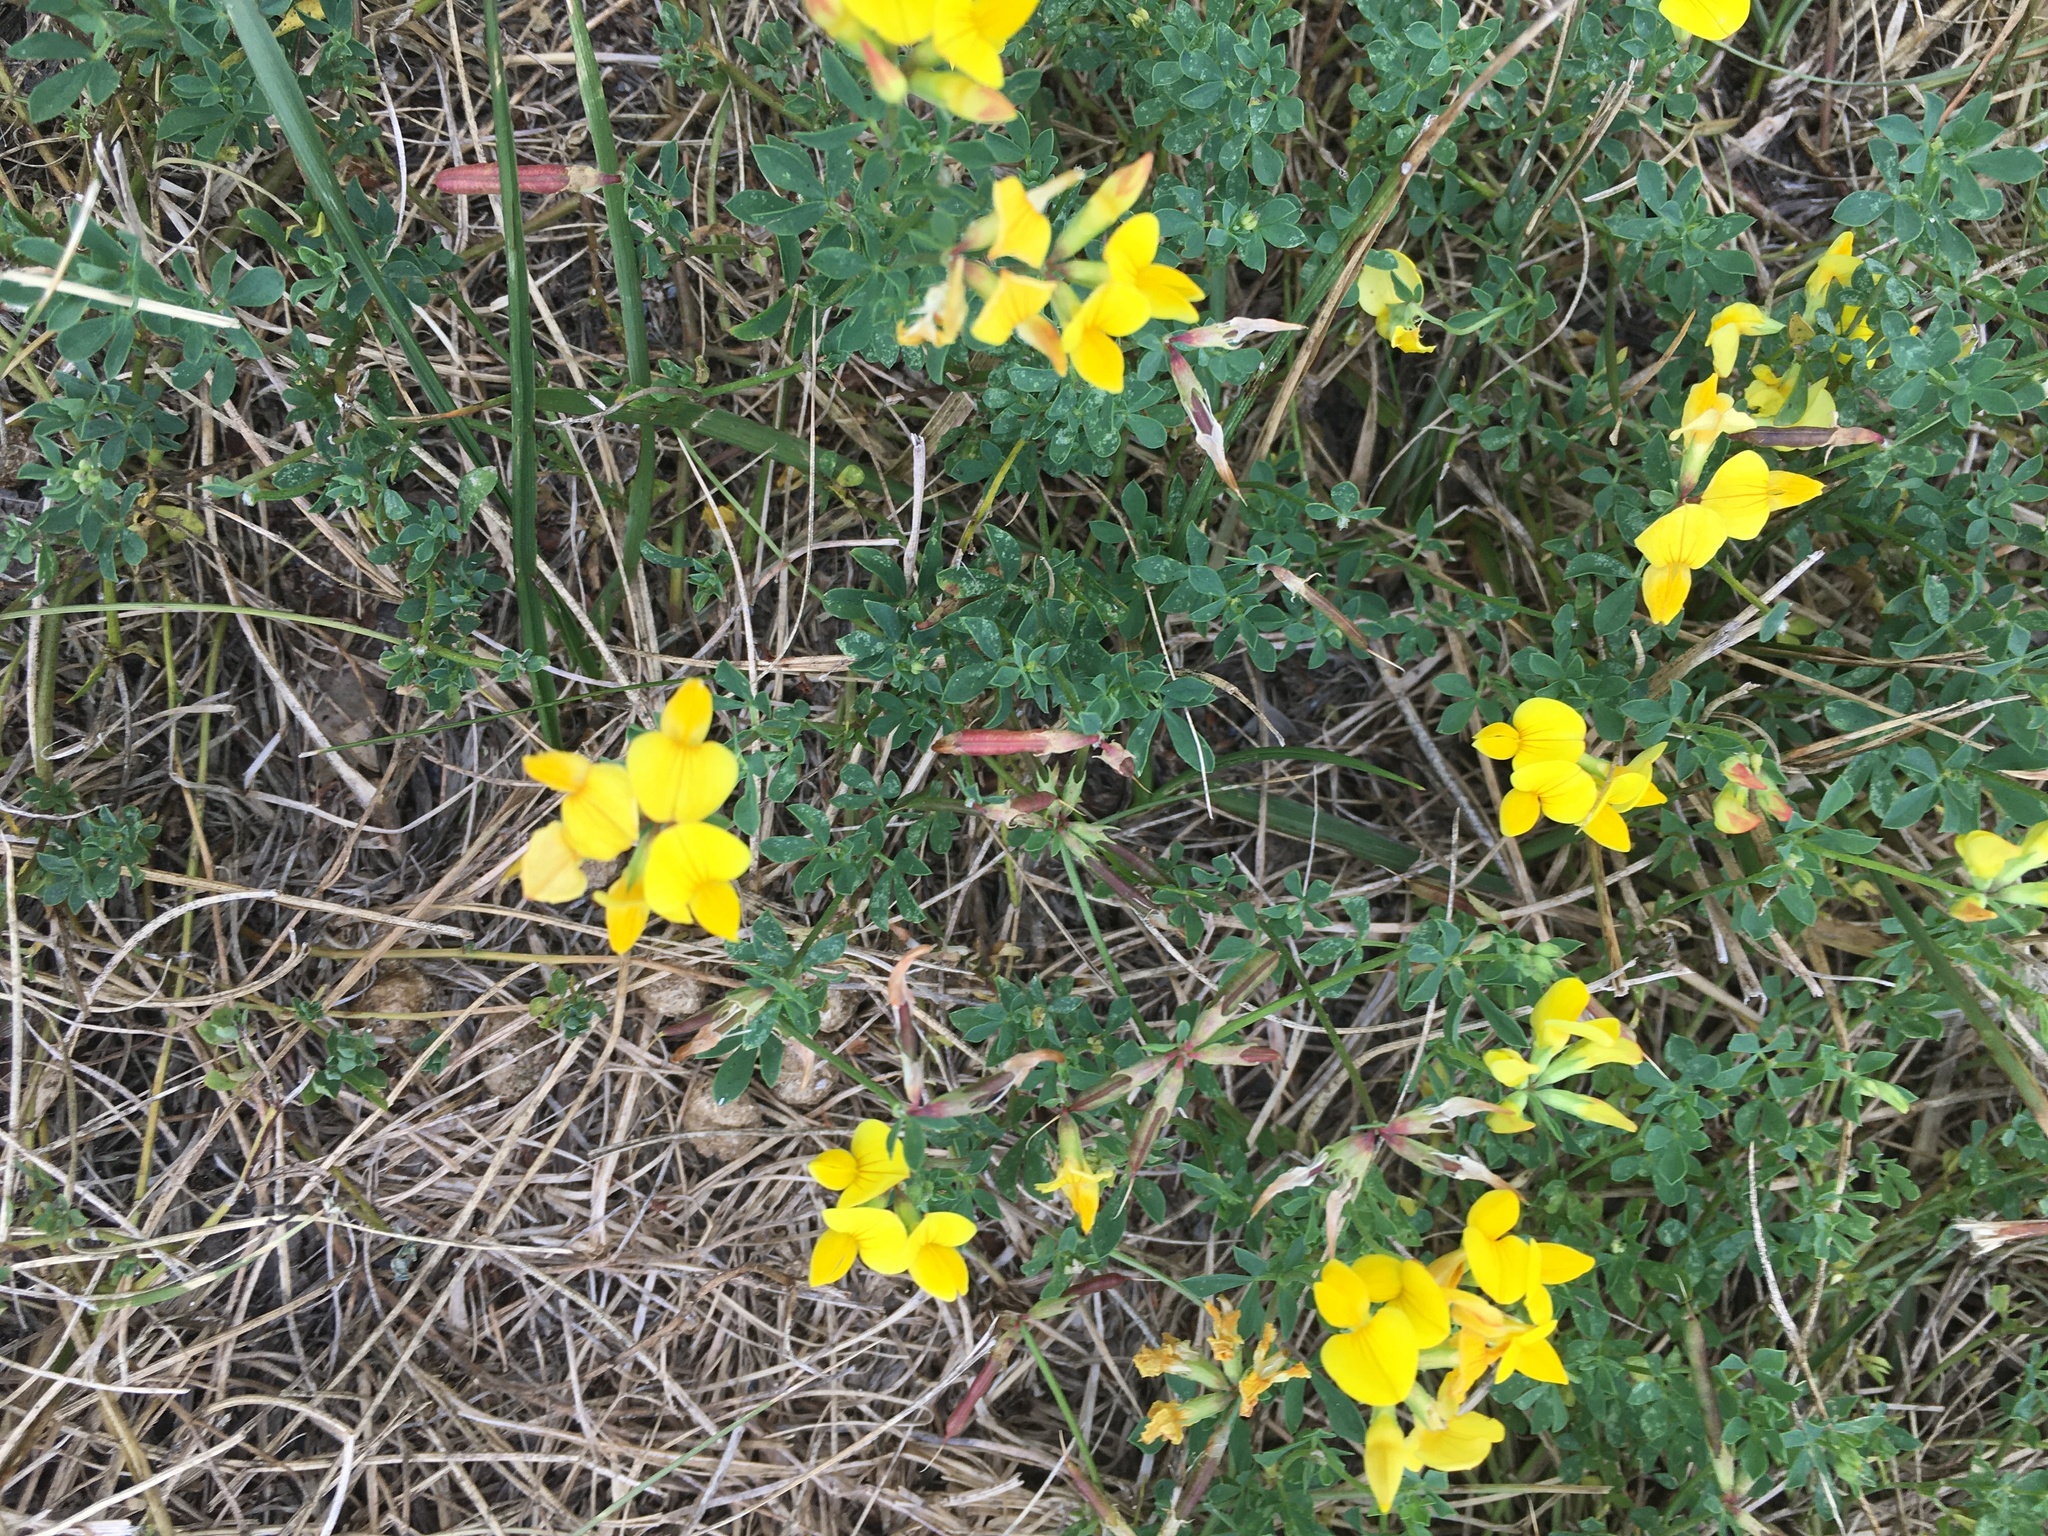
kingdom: Plantae
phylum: Tracheophyta
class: Magnoliopsida
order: Fabales
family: Fabaceae
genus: Lotus
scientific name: Lotus corniculatus
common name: Common bird's-foot-trefoil
